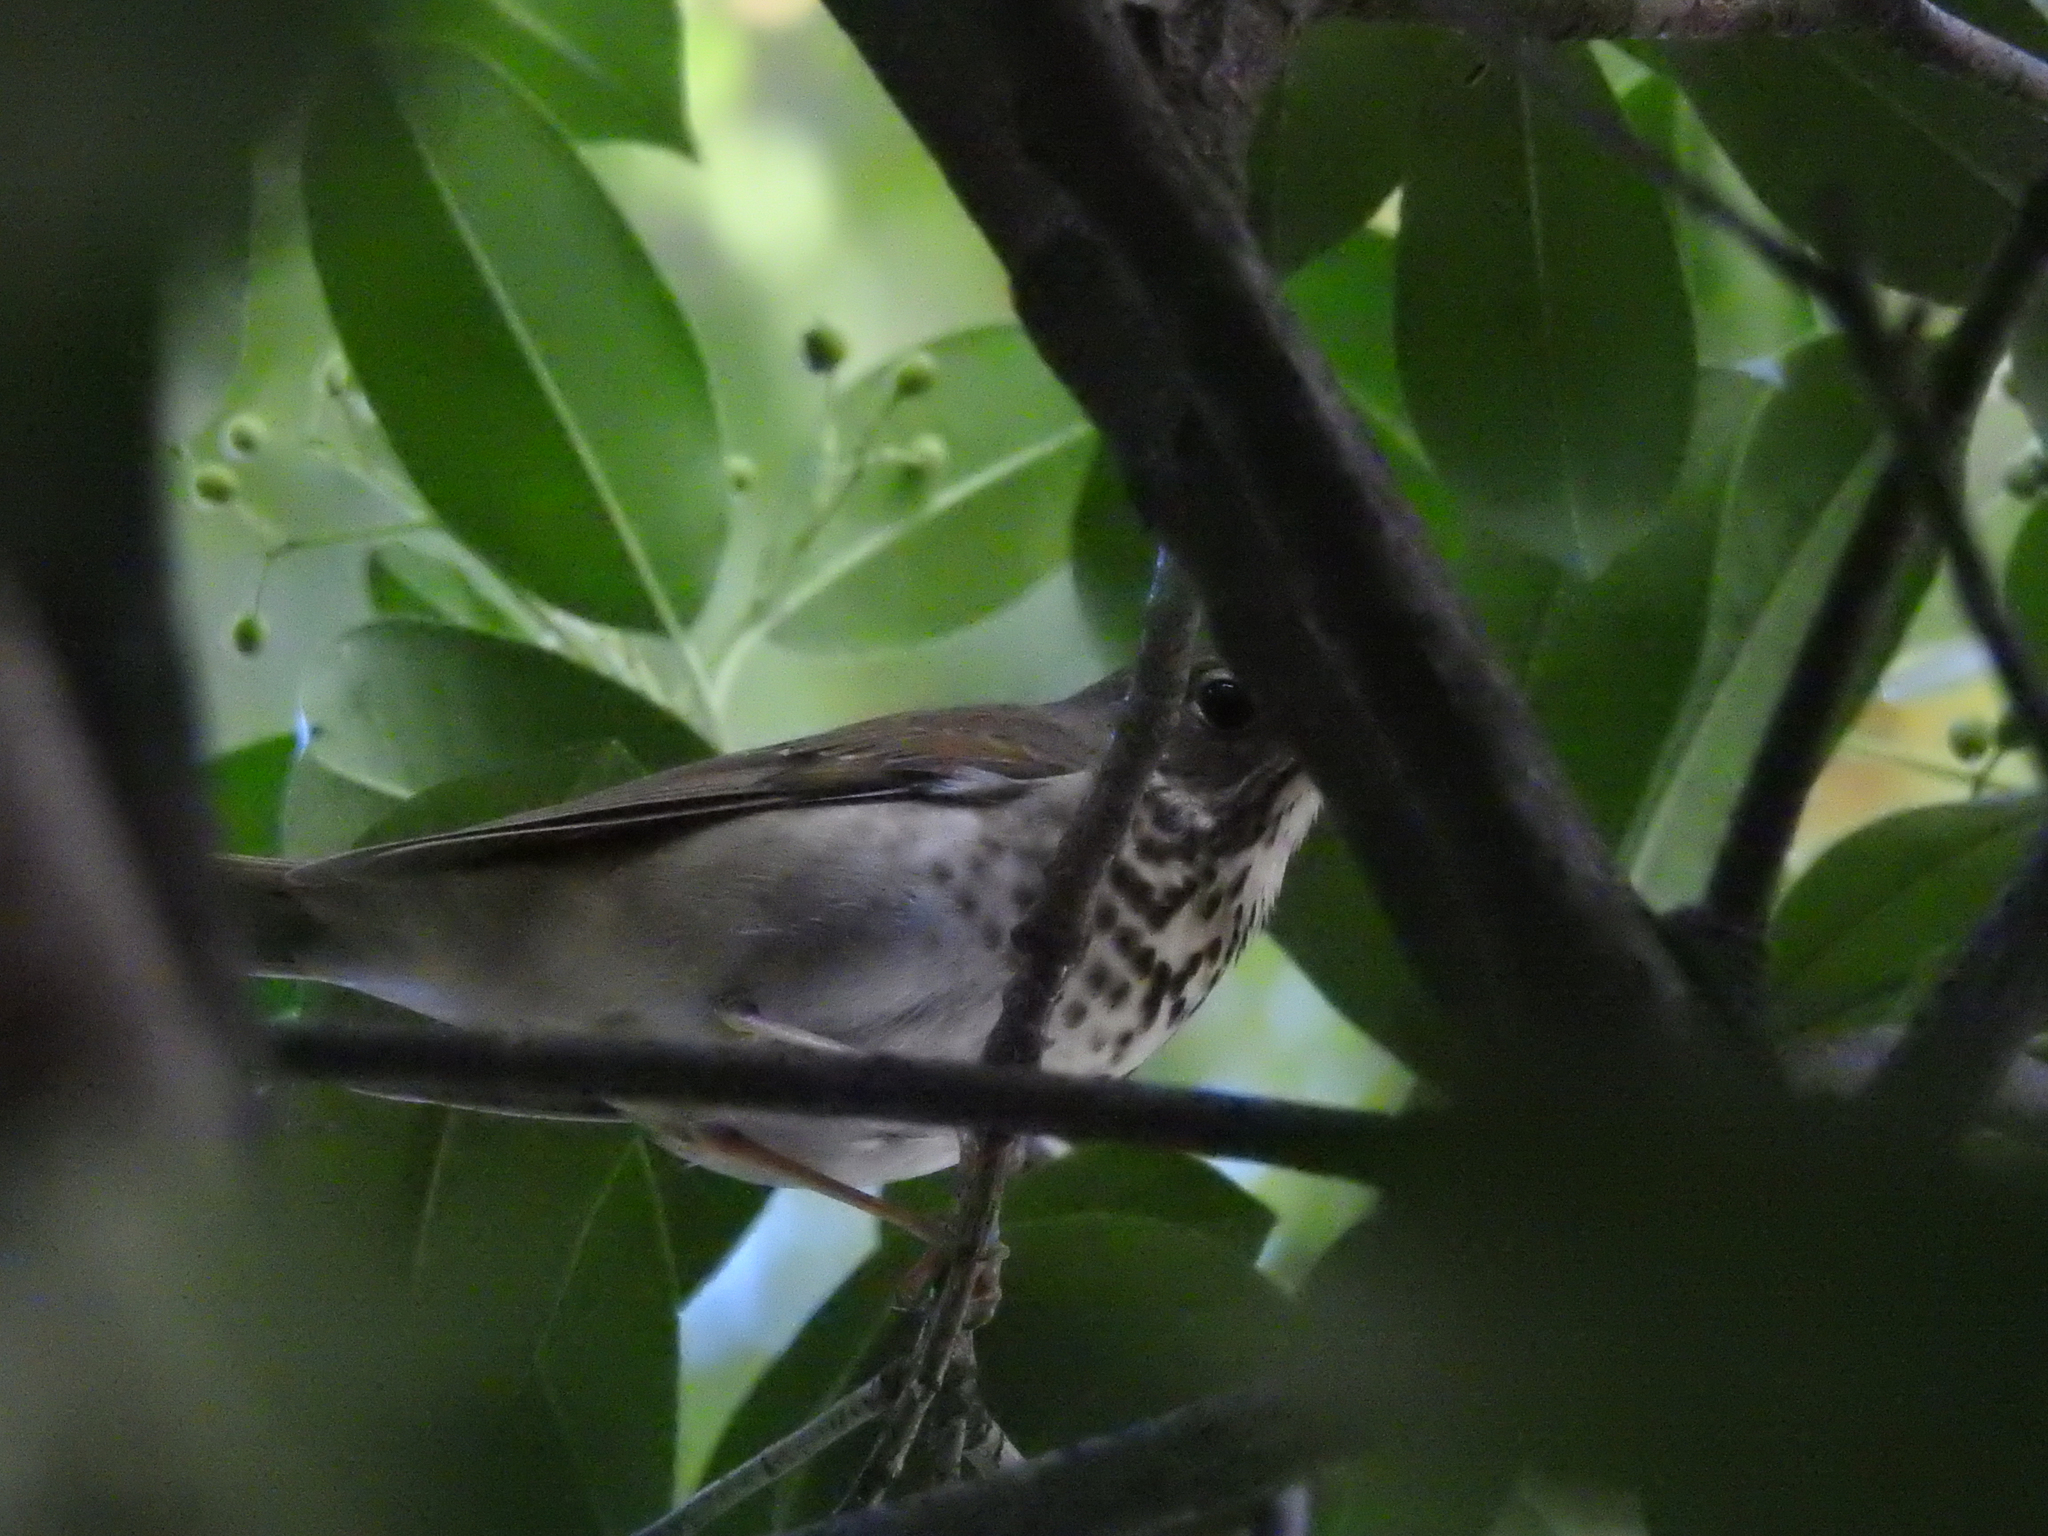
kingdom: Animalia
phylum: Chordata
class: Aves
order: Passeriformes
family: Turdidae
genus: Catharus
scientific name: Catharus guttatus
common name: Hermit thrush
